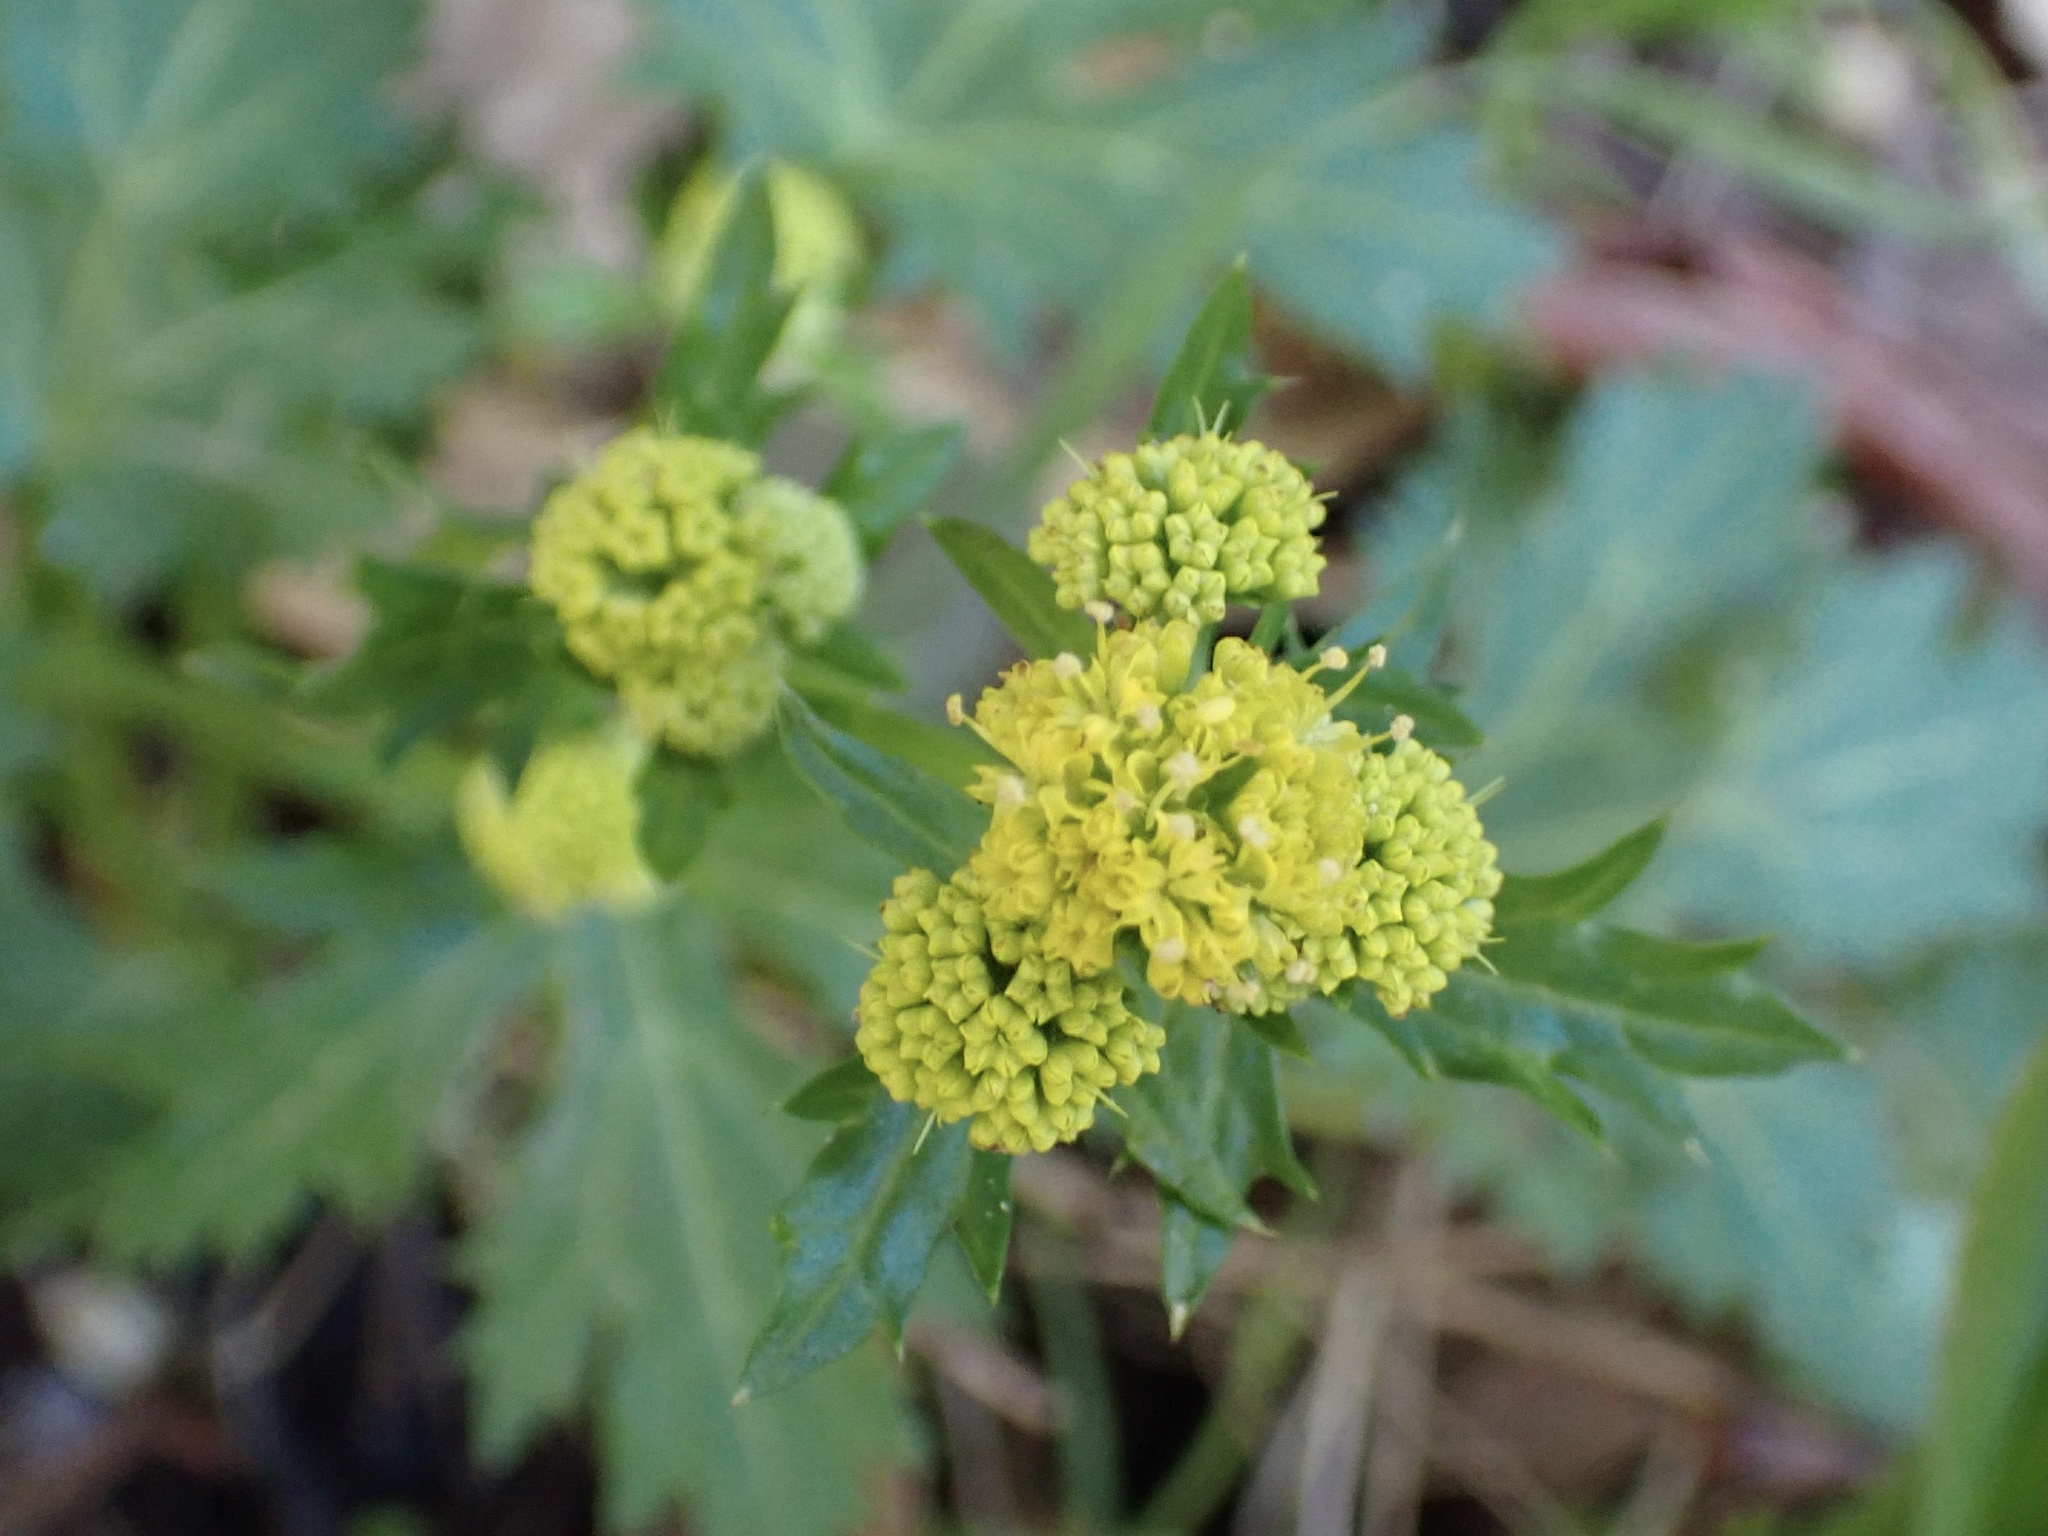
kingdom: Plantae
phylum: Tracheophyta
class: Magnoliopsida
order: Apiales
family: Apiaceae
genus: Sanicula
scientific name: Sanicula laciniata
